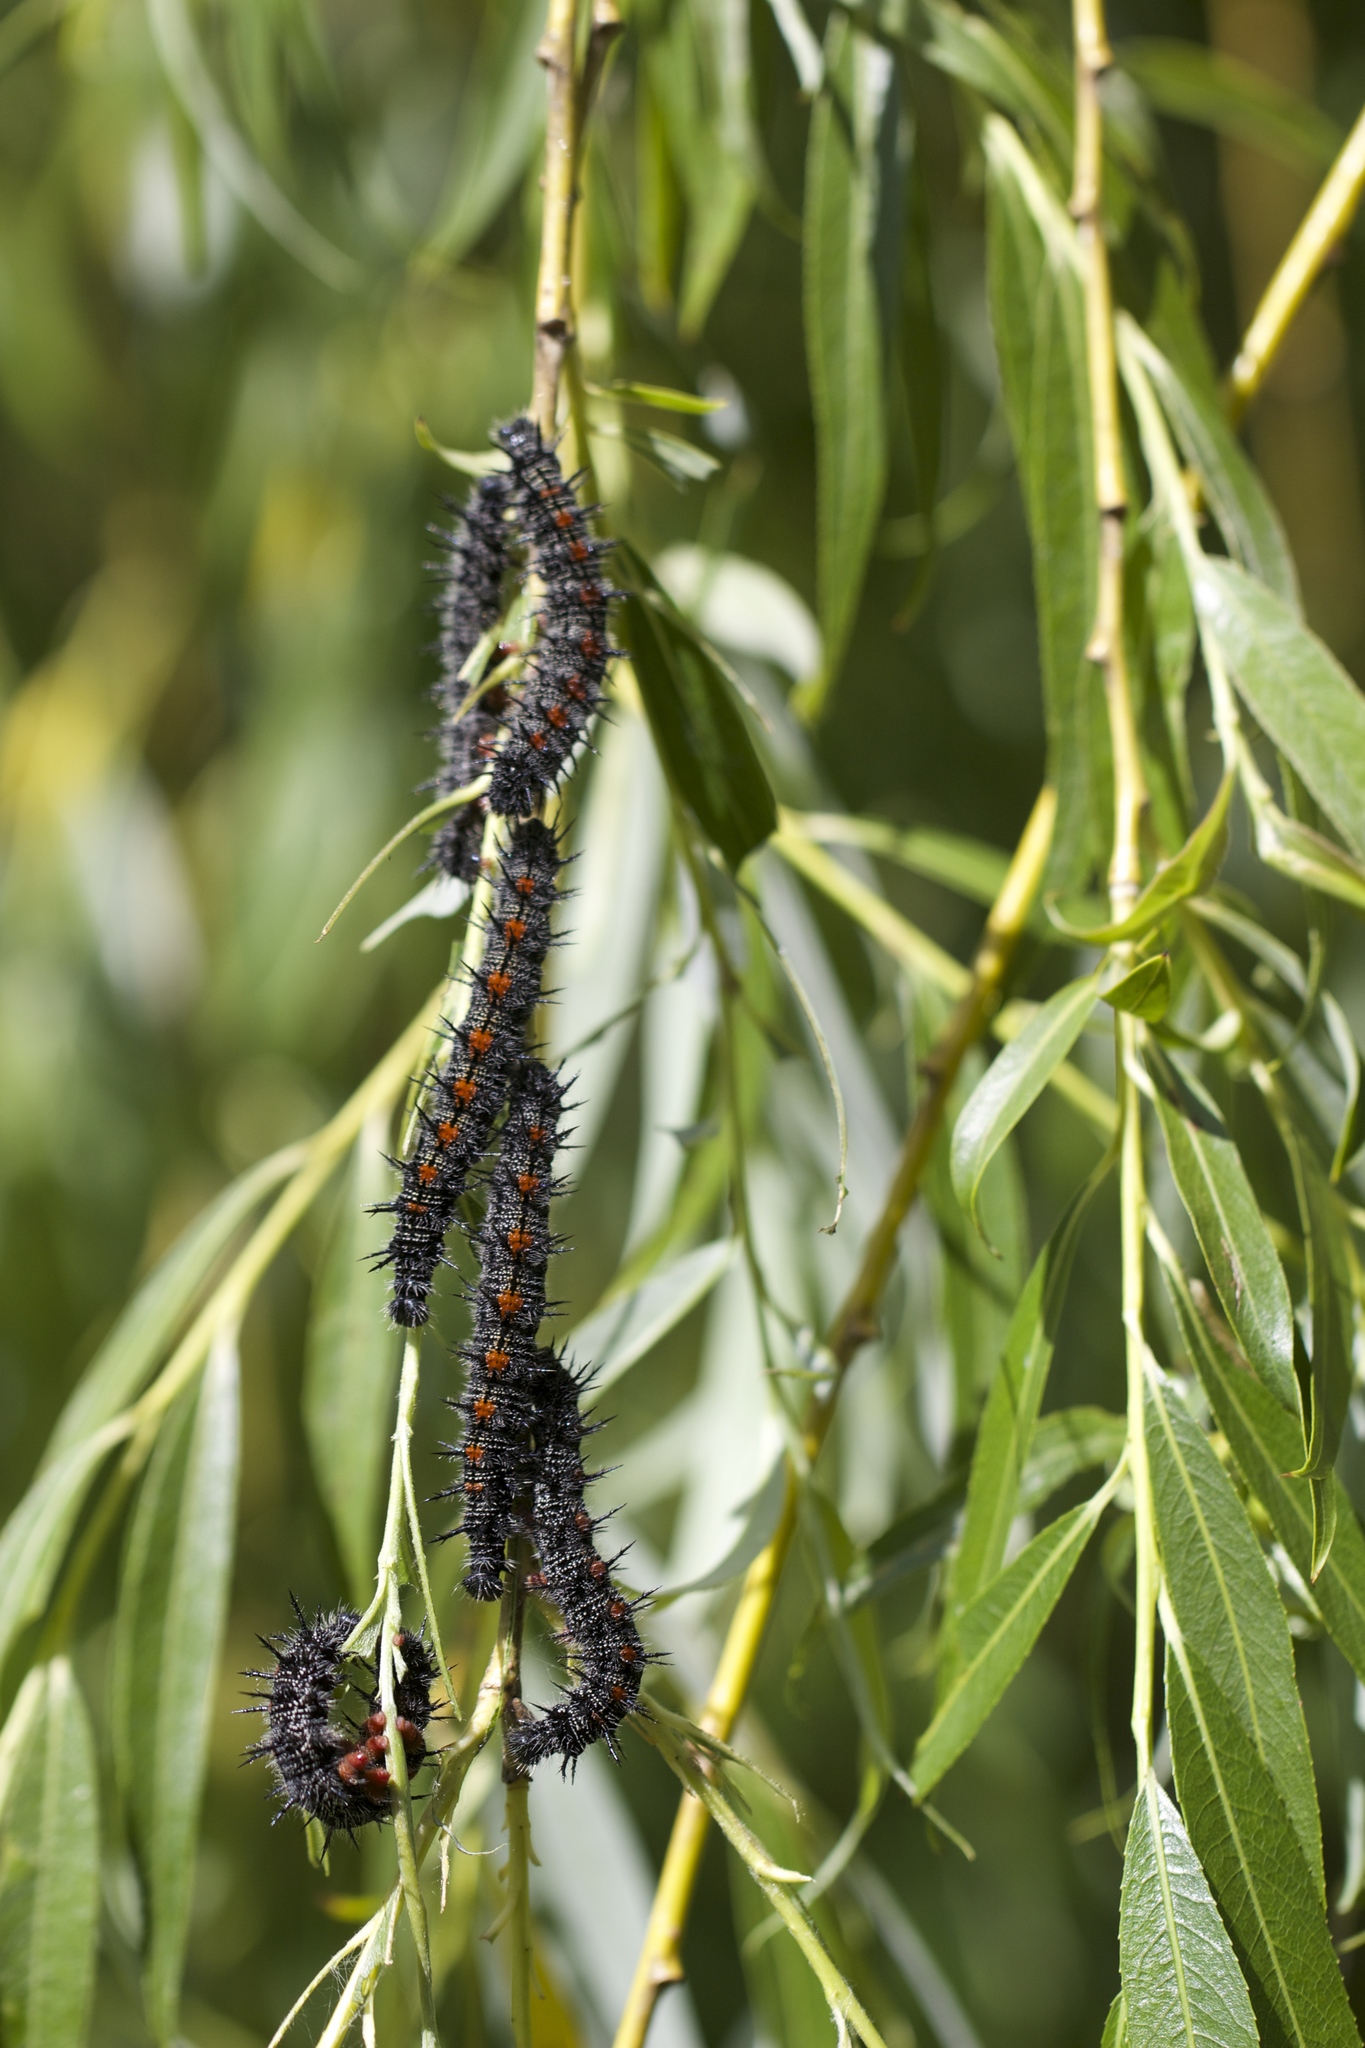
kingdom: Animalia
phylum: Arthropoda
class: Insecta
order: Lepidoptera
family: Nymphalidae
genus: Nymphalis
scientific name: Nymphalis antiopa
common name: Camberwell beauty
